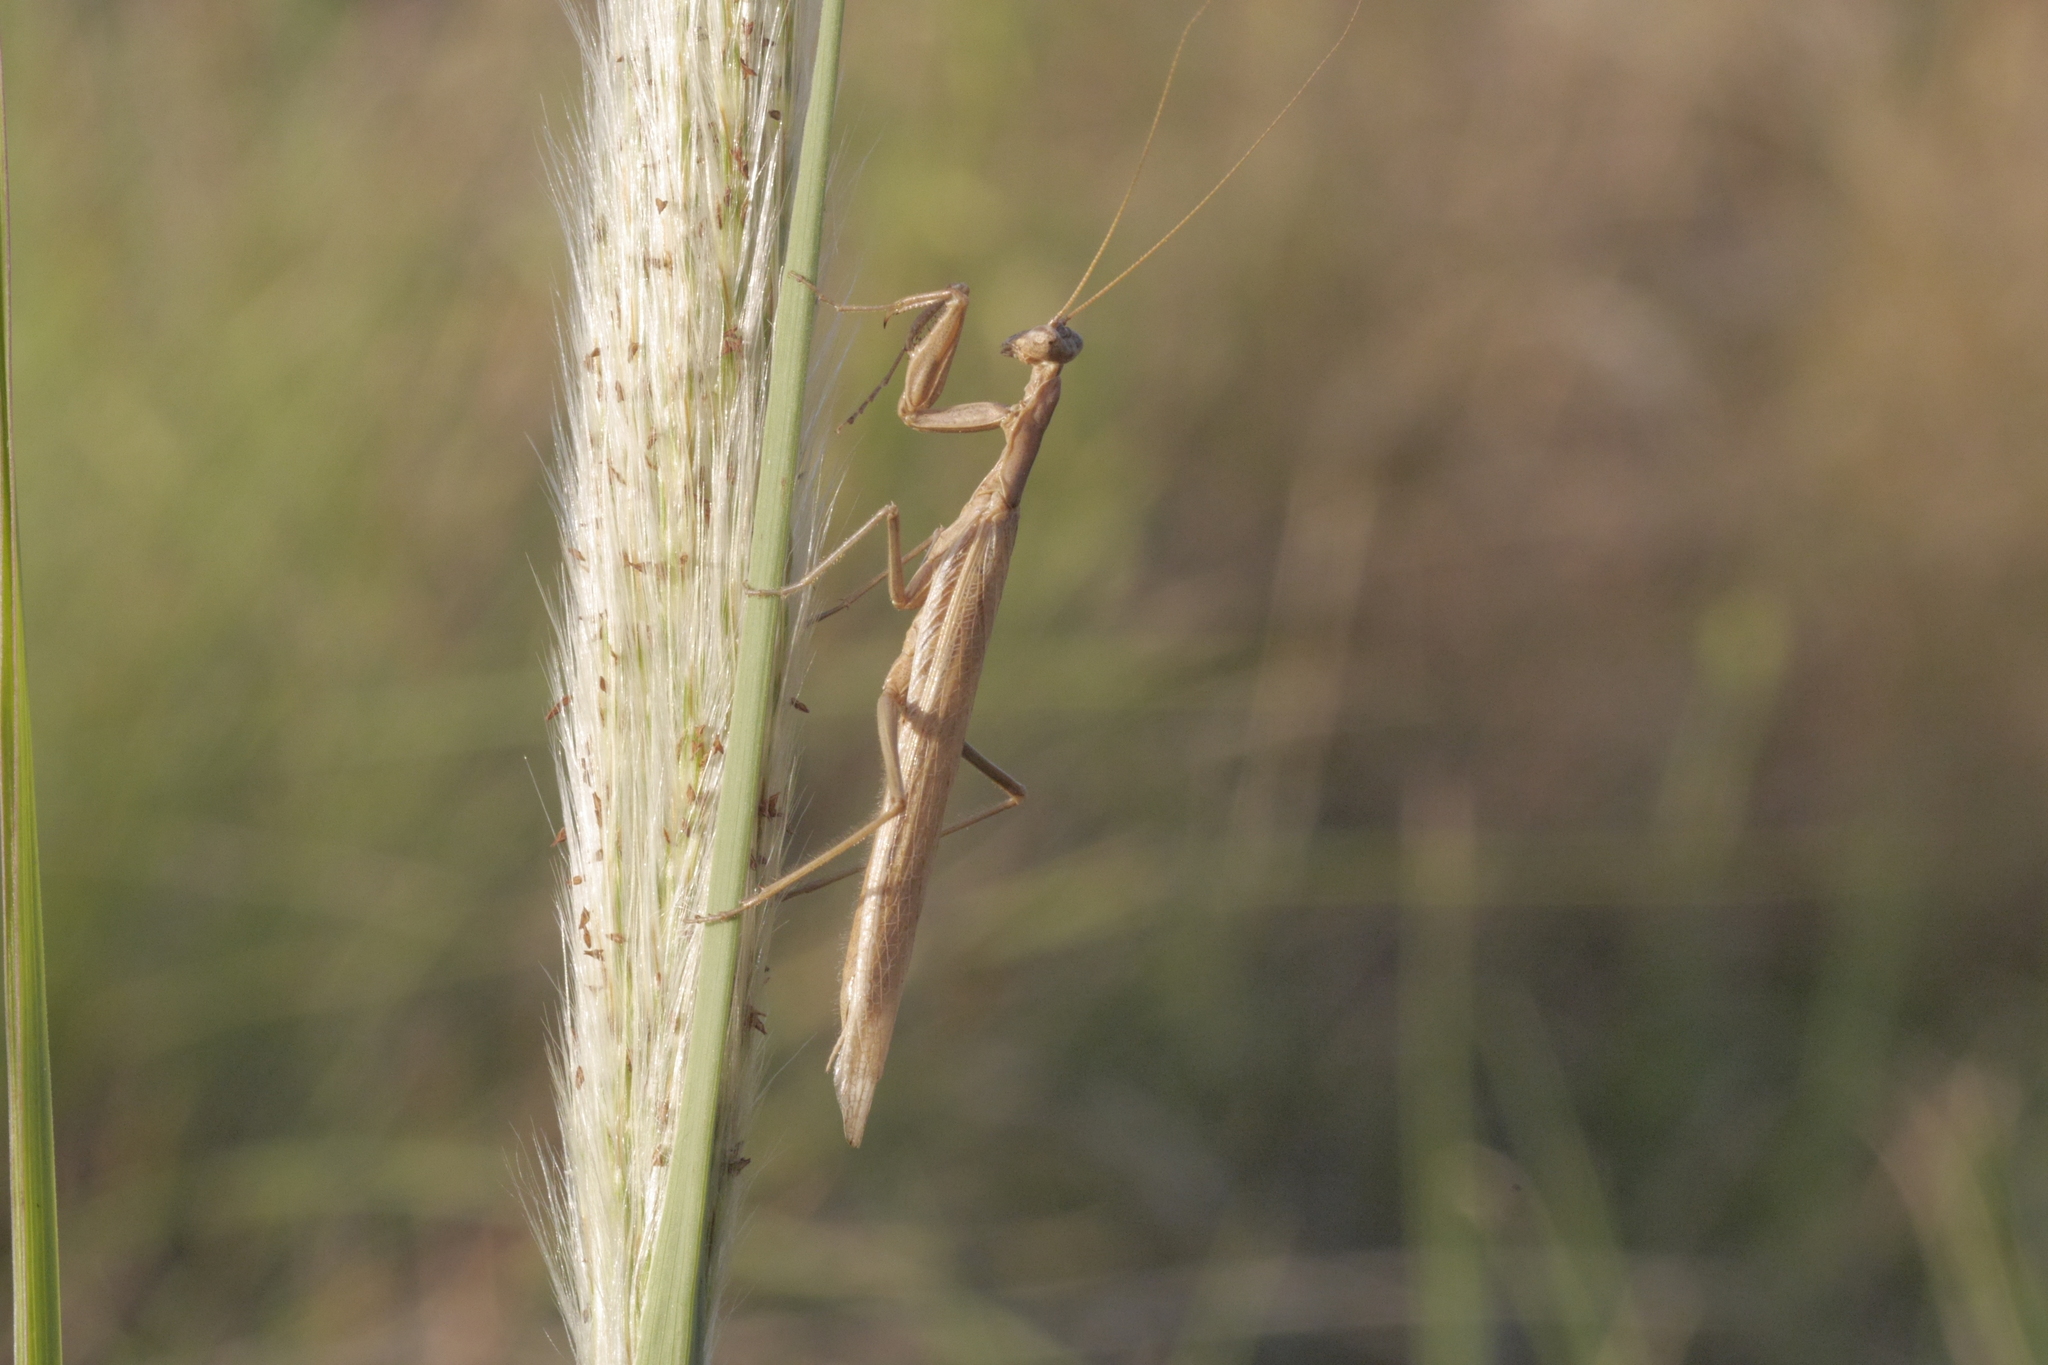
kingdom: Animalia
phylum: Arthropoda
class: Insecta
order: Mantodea
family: Mantidae
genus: Mantis
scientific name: Mantis religiosa
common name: Praying mantis
